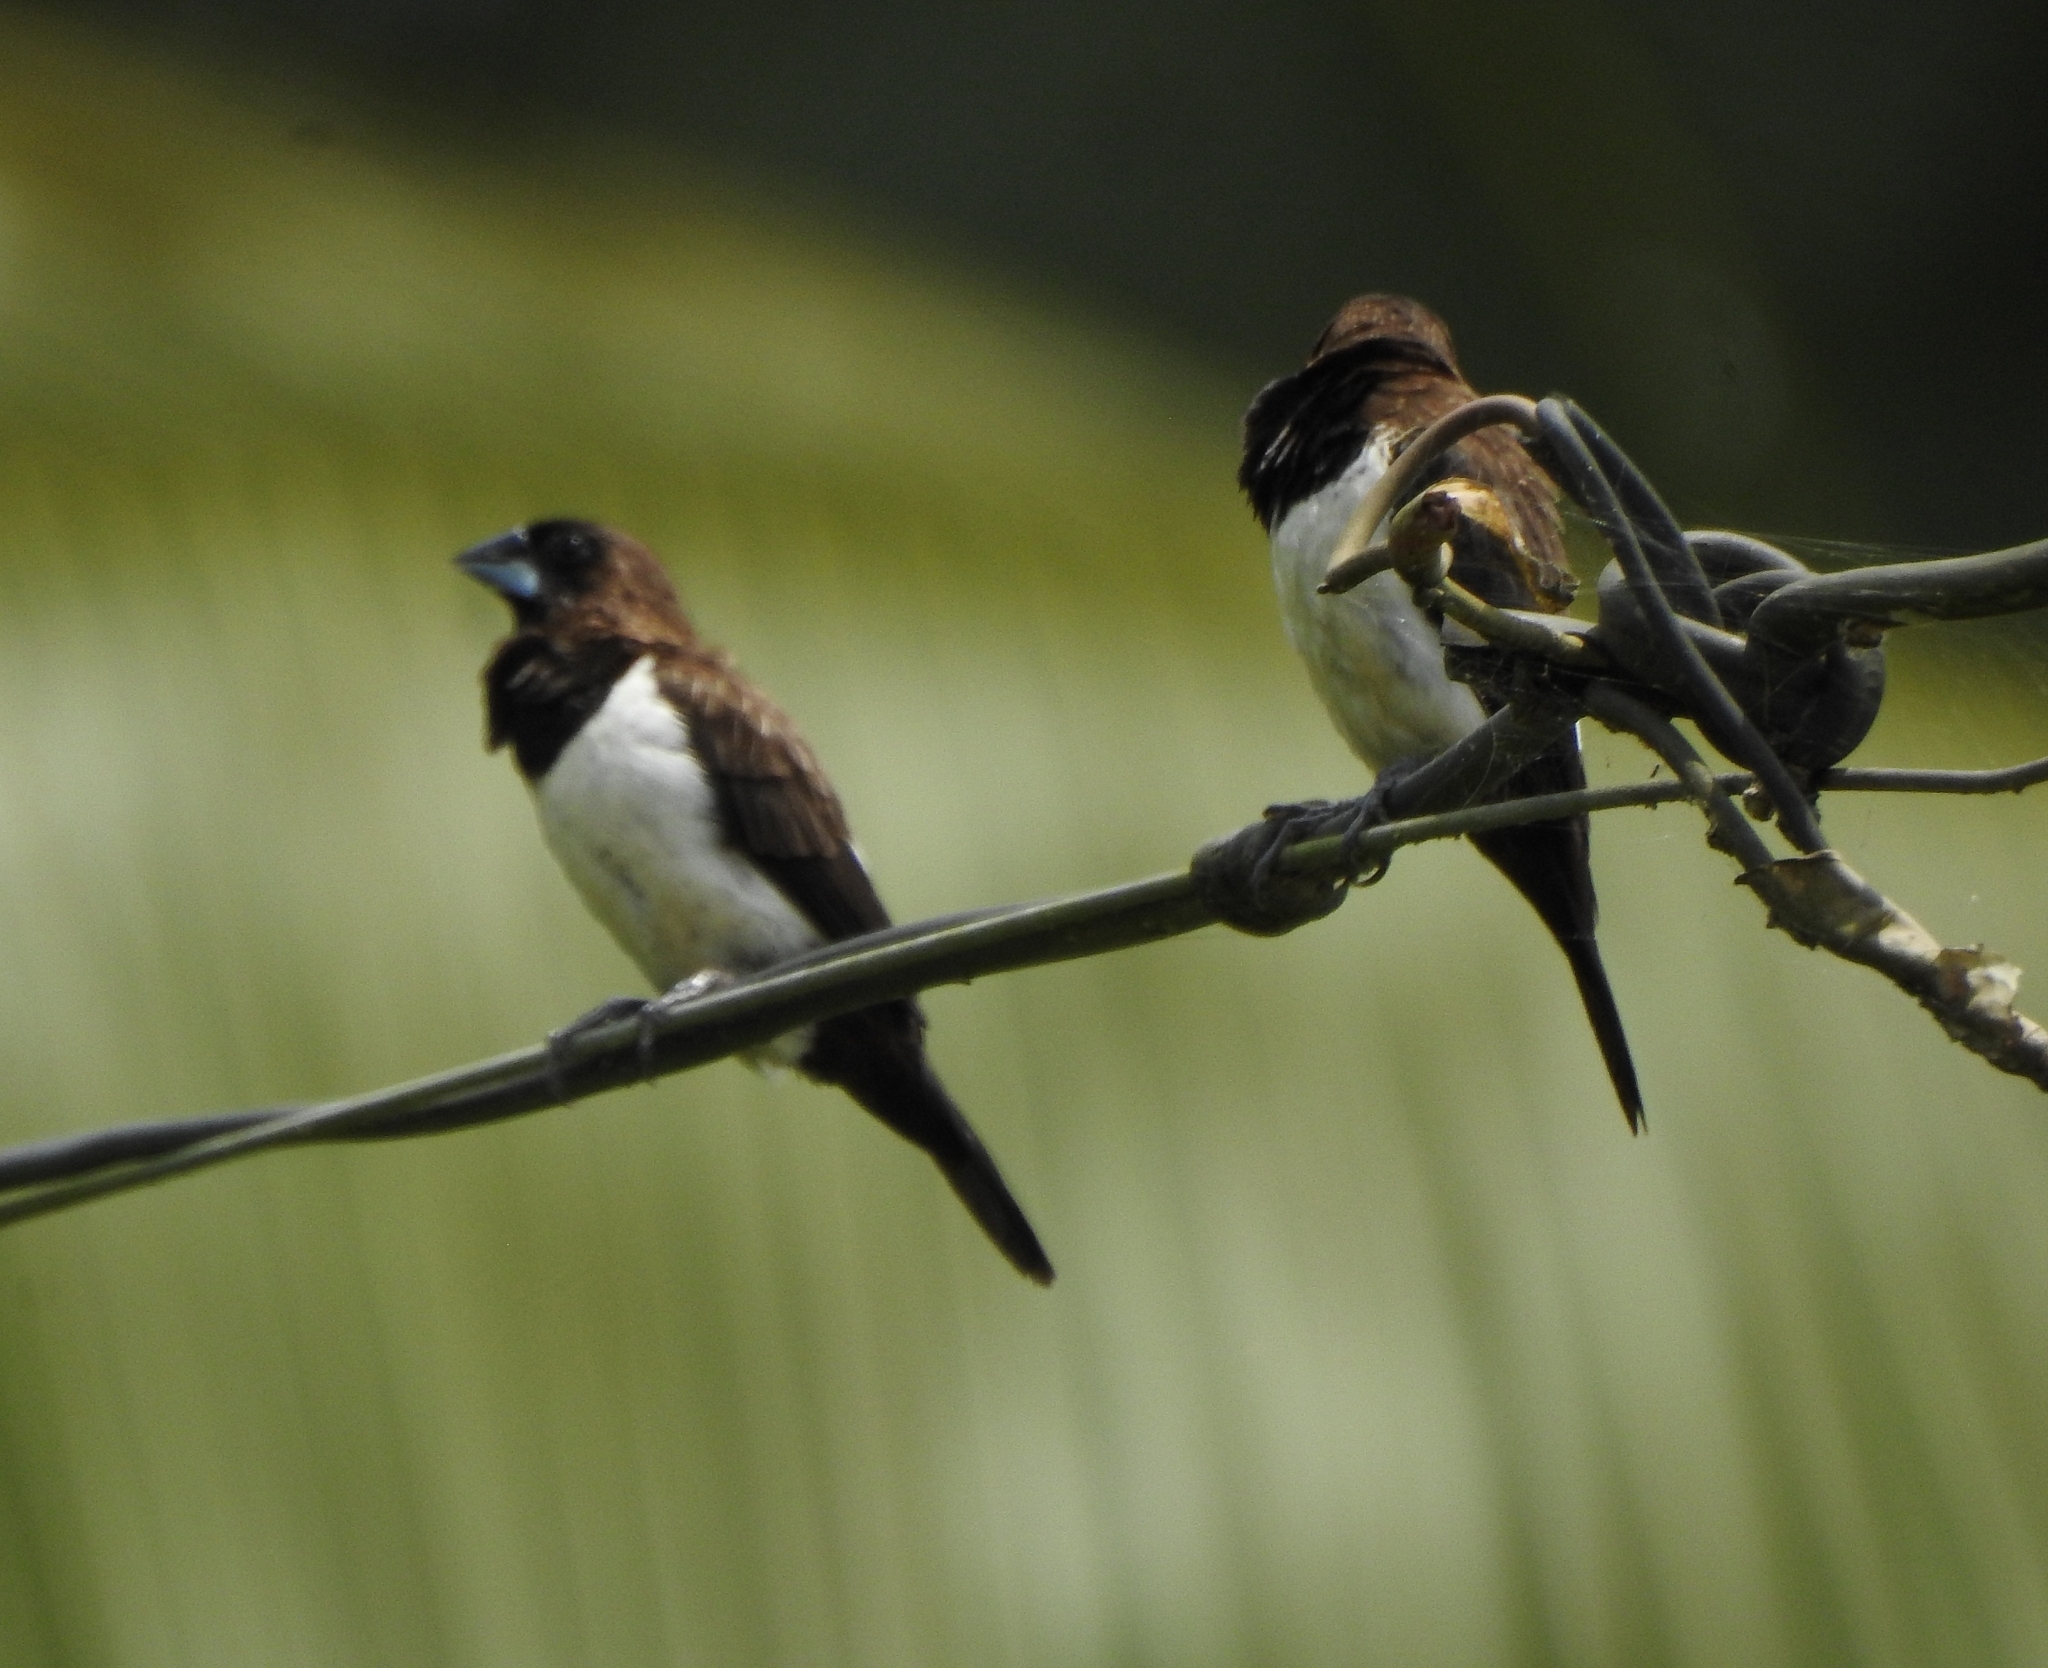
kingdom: Animalia
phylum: Chordata
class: Aves
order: Passeriformes
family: Estrildidae
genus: Lonchura
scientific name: Lonchura striata
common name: White-rumped munia
